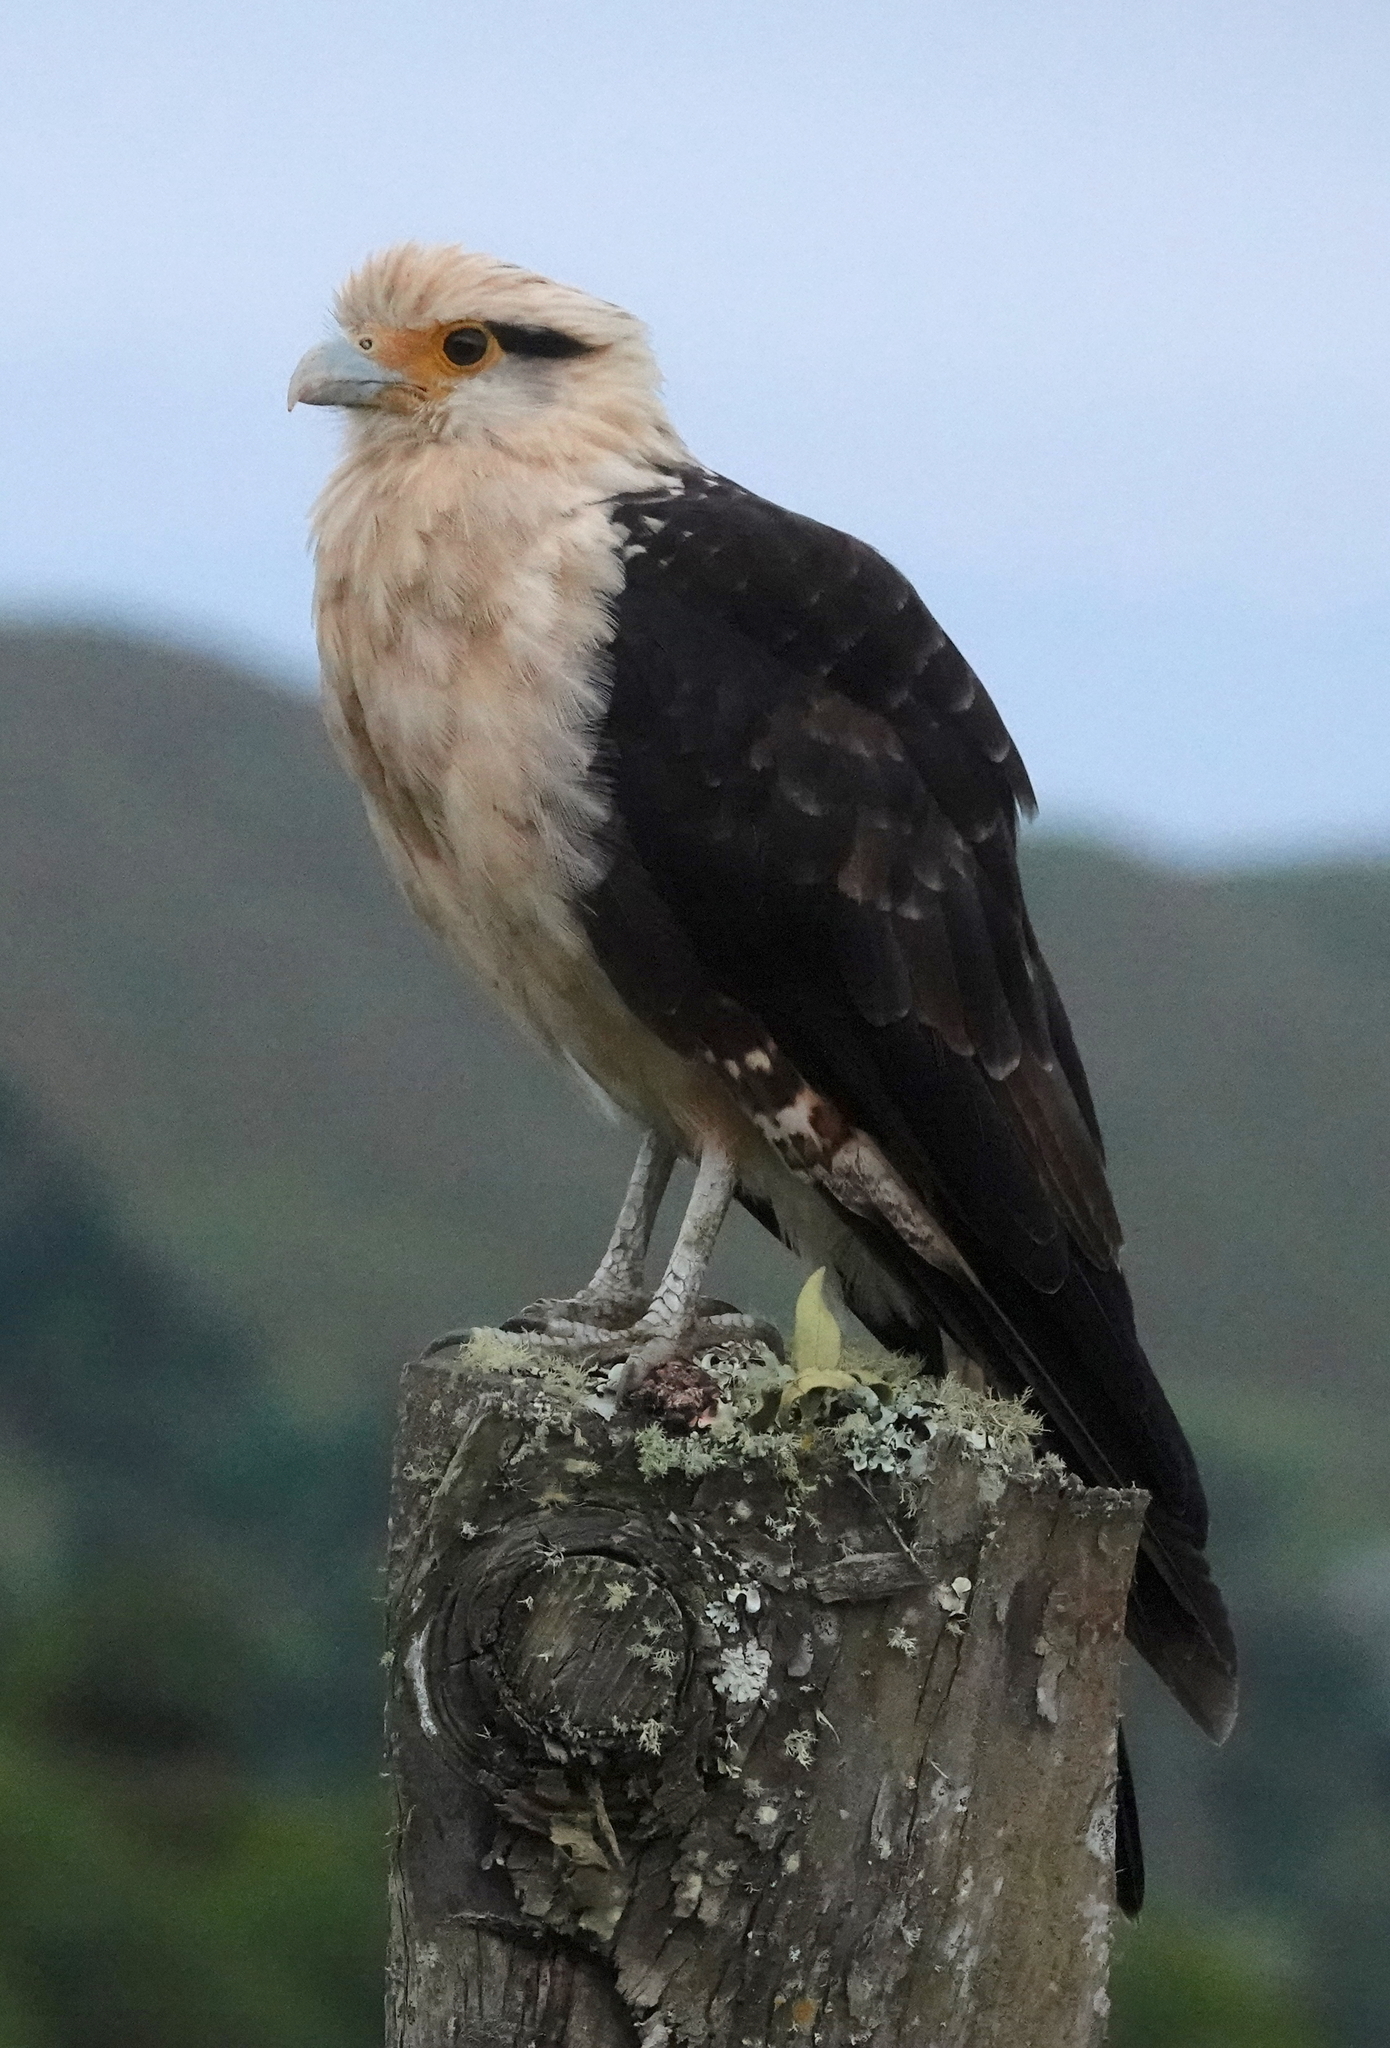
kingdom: Animalia
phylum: Chordata
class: Aves
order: Falconiformes
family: Falconidae
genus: Daptrius
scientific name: Daptrius
